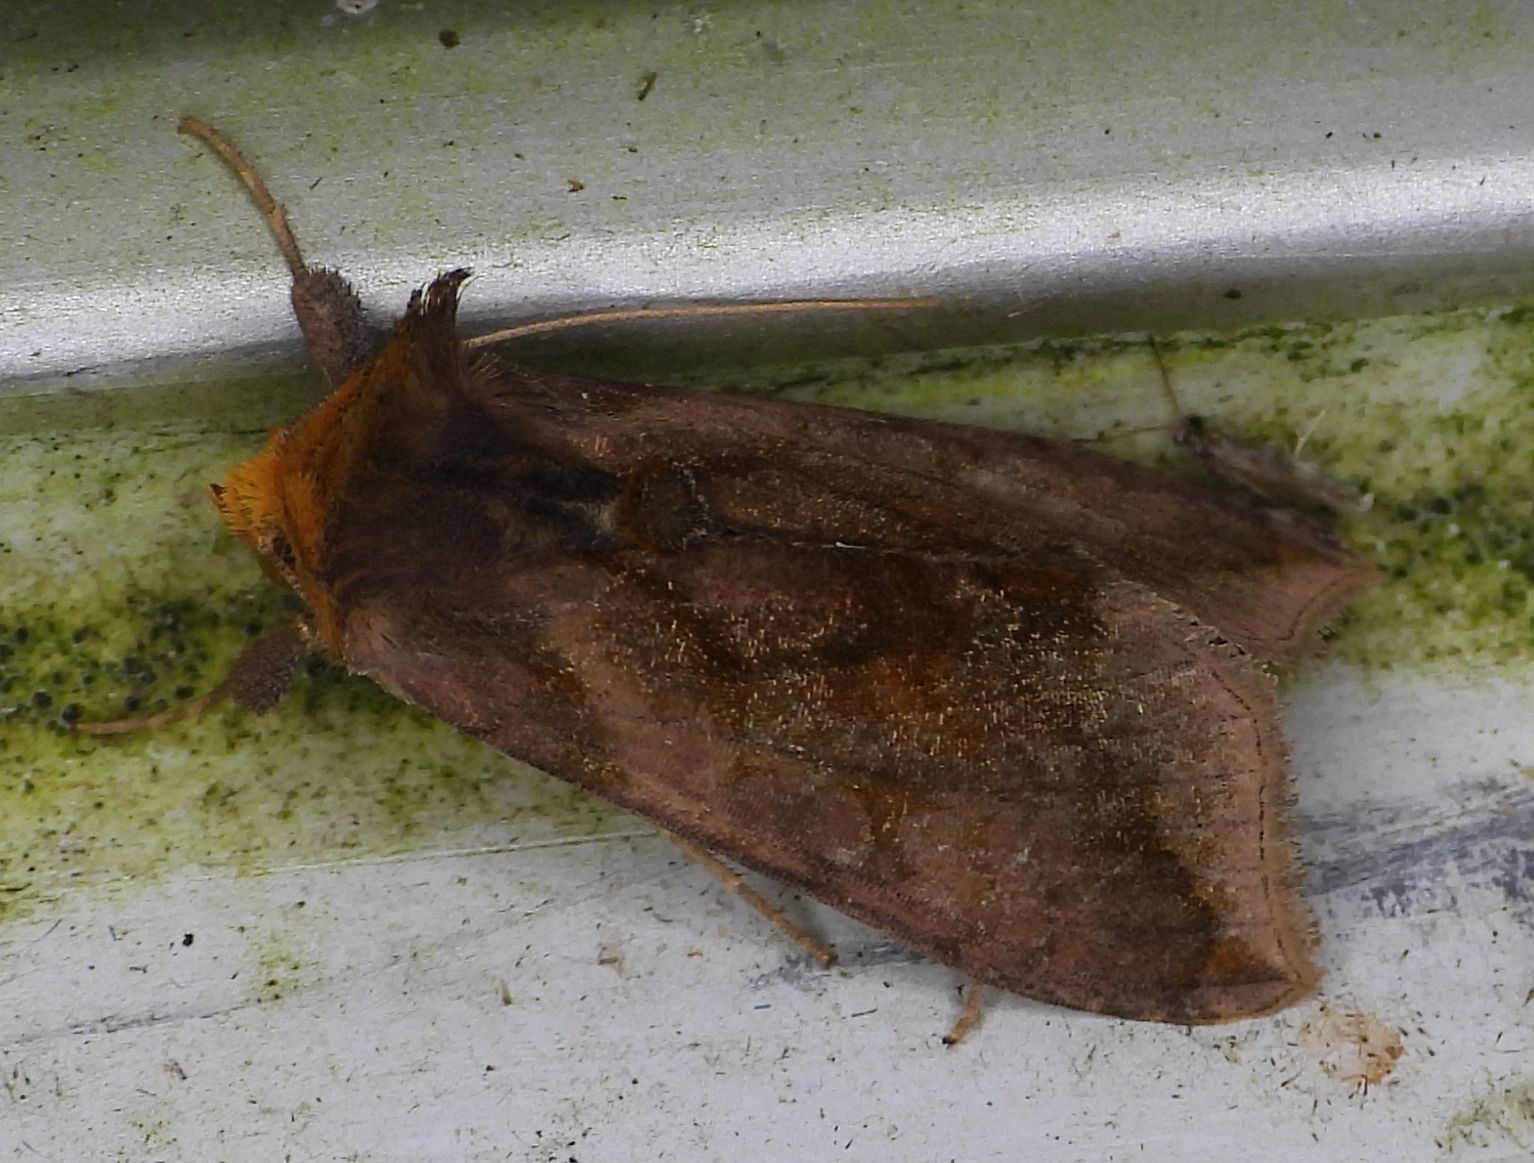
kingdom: Animalia
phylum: Arthropoda
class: Insecta
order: Lepidoptera
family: Noctuidae
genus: Allagrapha
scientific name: Allagrapha aerea
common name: Unspotted looper moth
